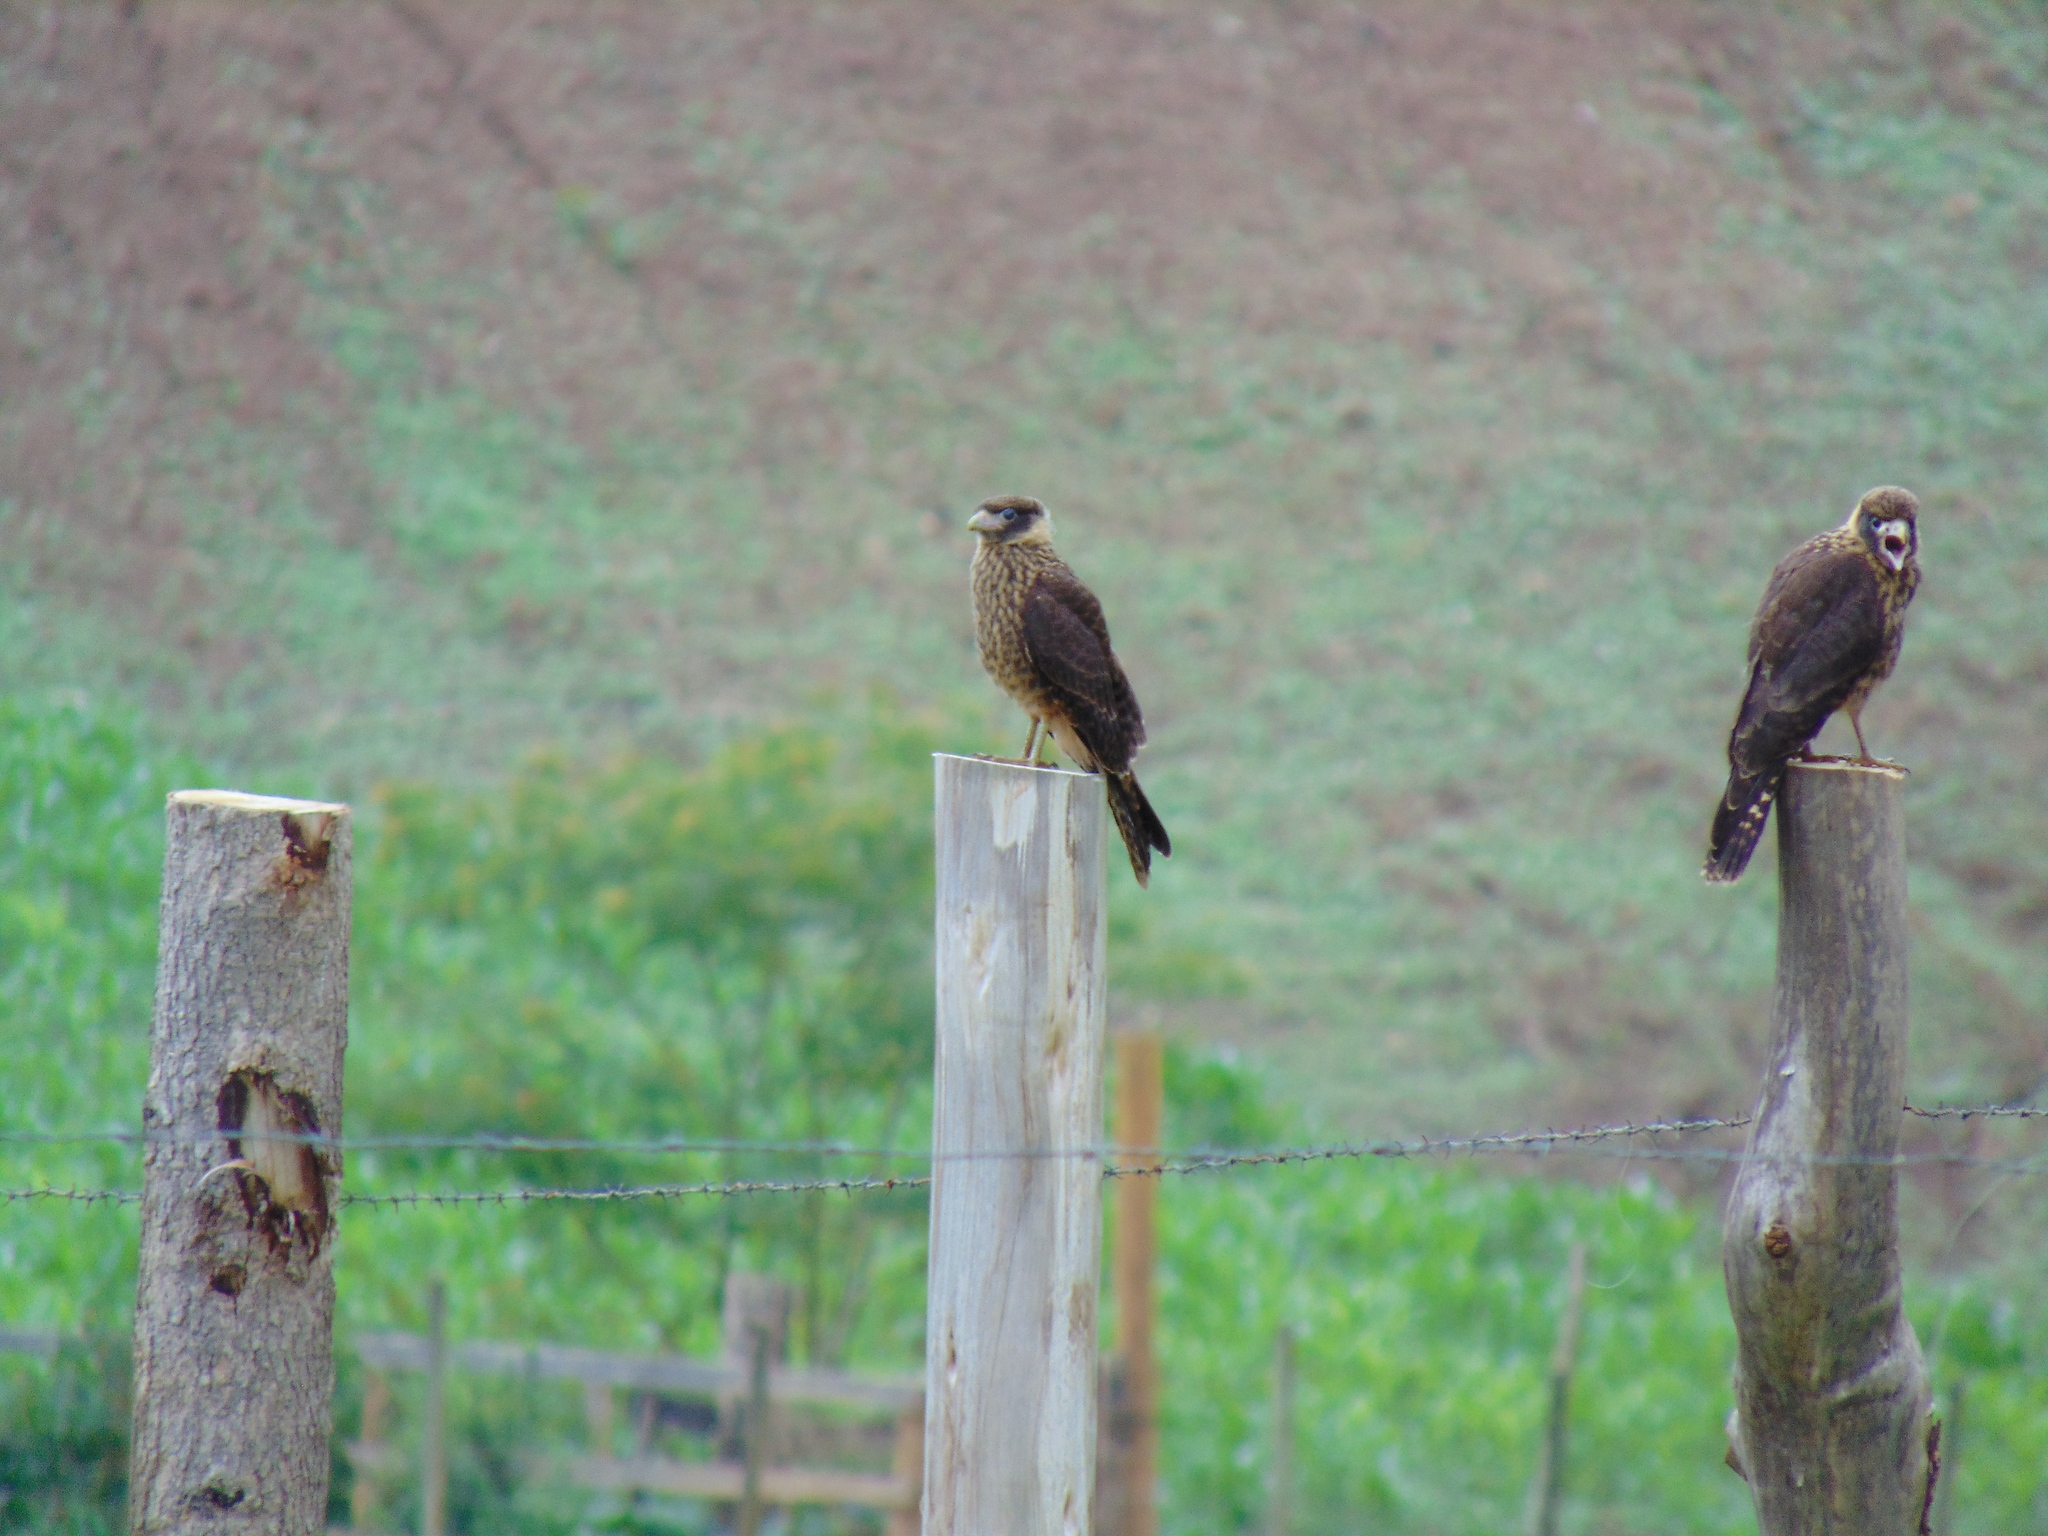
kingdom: Animalia
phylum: Chordata
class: Aves
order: Falconiformes
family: Falconidae
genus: Daptrius
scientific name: Daptrius
